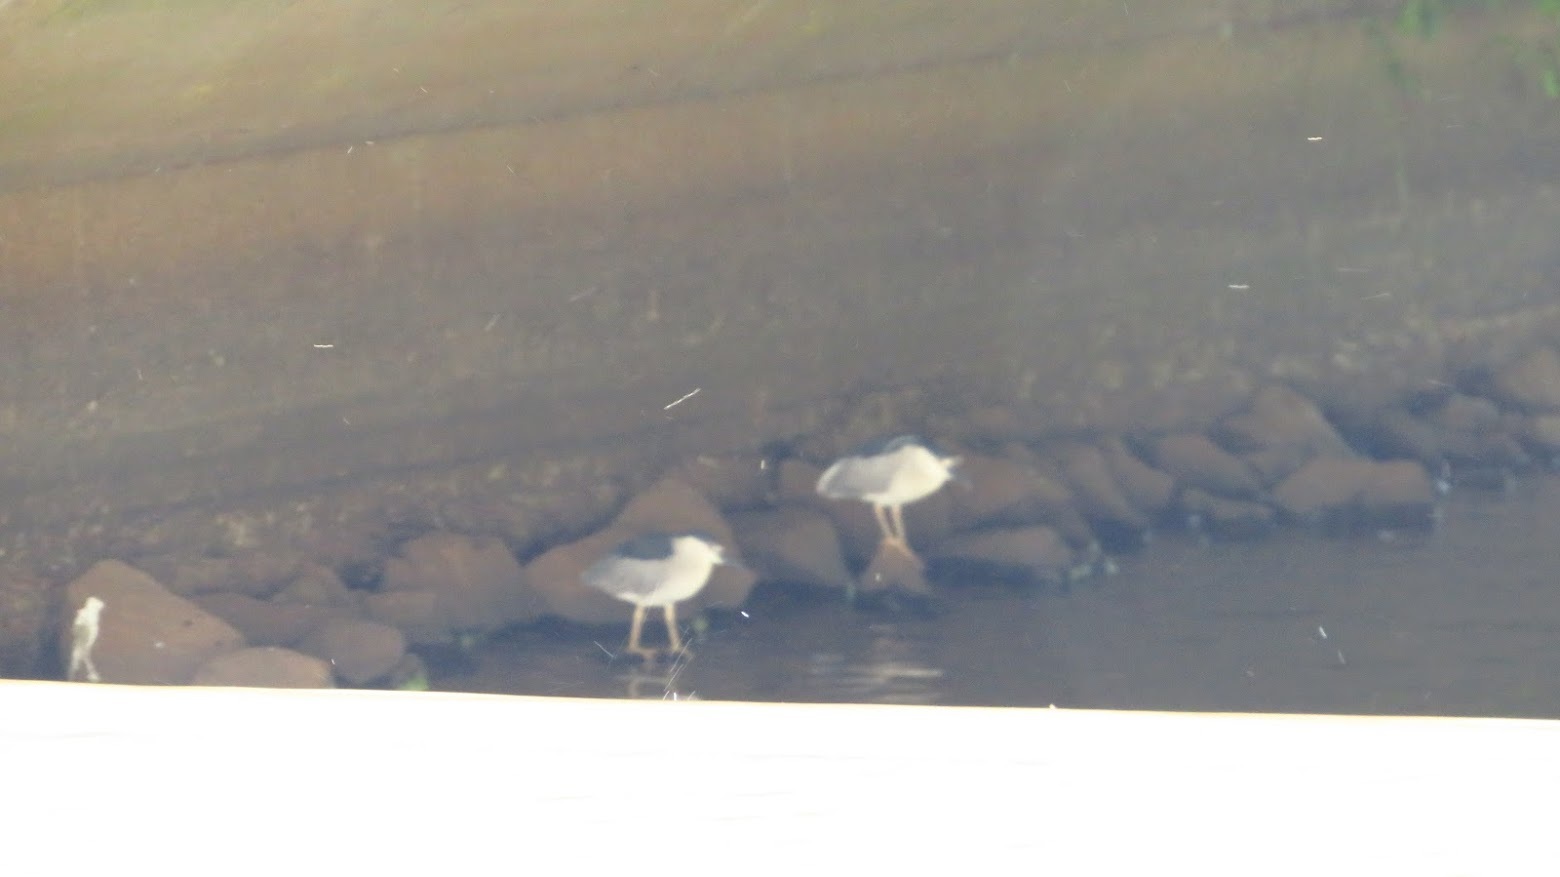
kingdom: Animalia
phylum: Chordata
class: Aves
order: Pelecaniformes
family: Ardeidae
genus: Nycticorax
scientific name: Nycticorax nycticorax
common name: Black-crowned night heron
